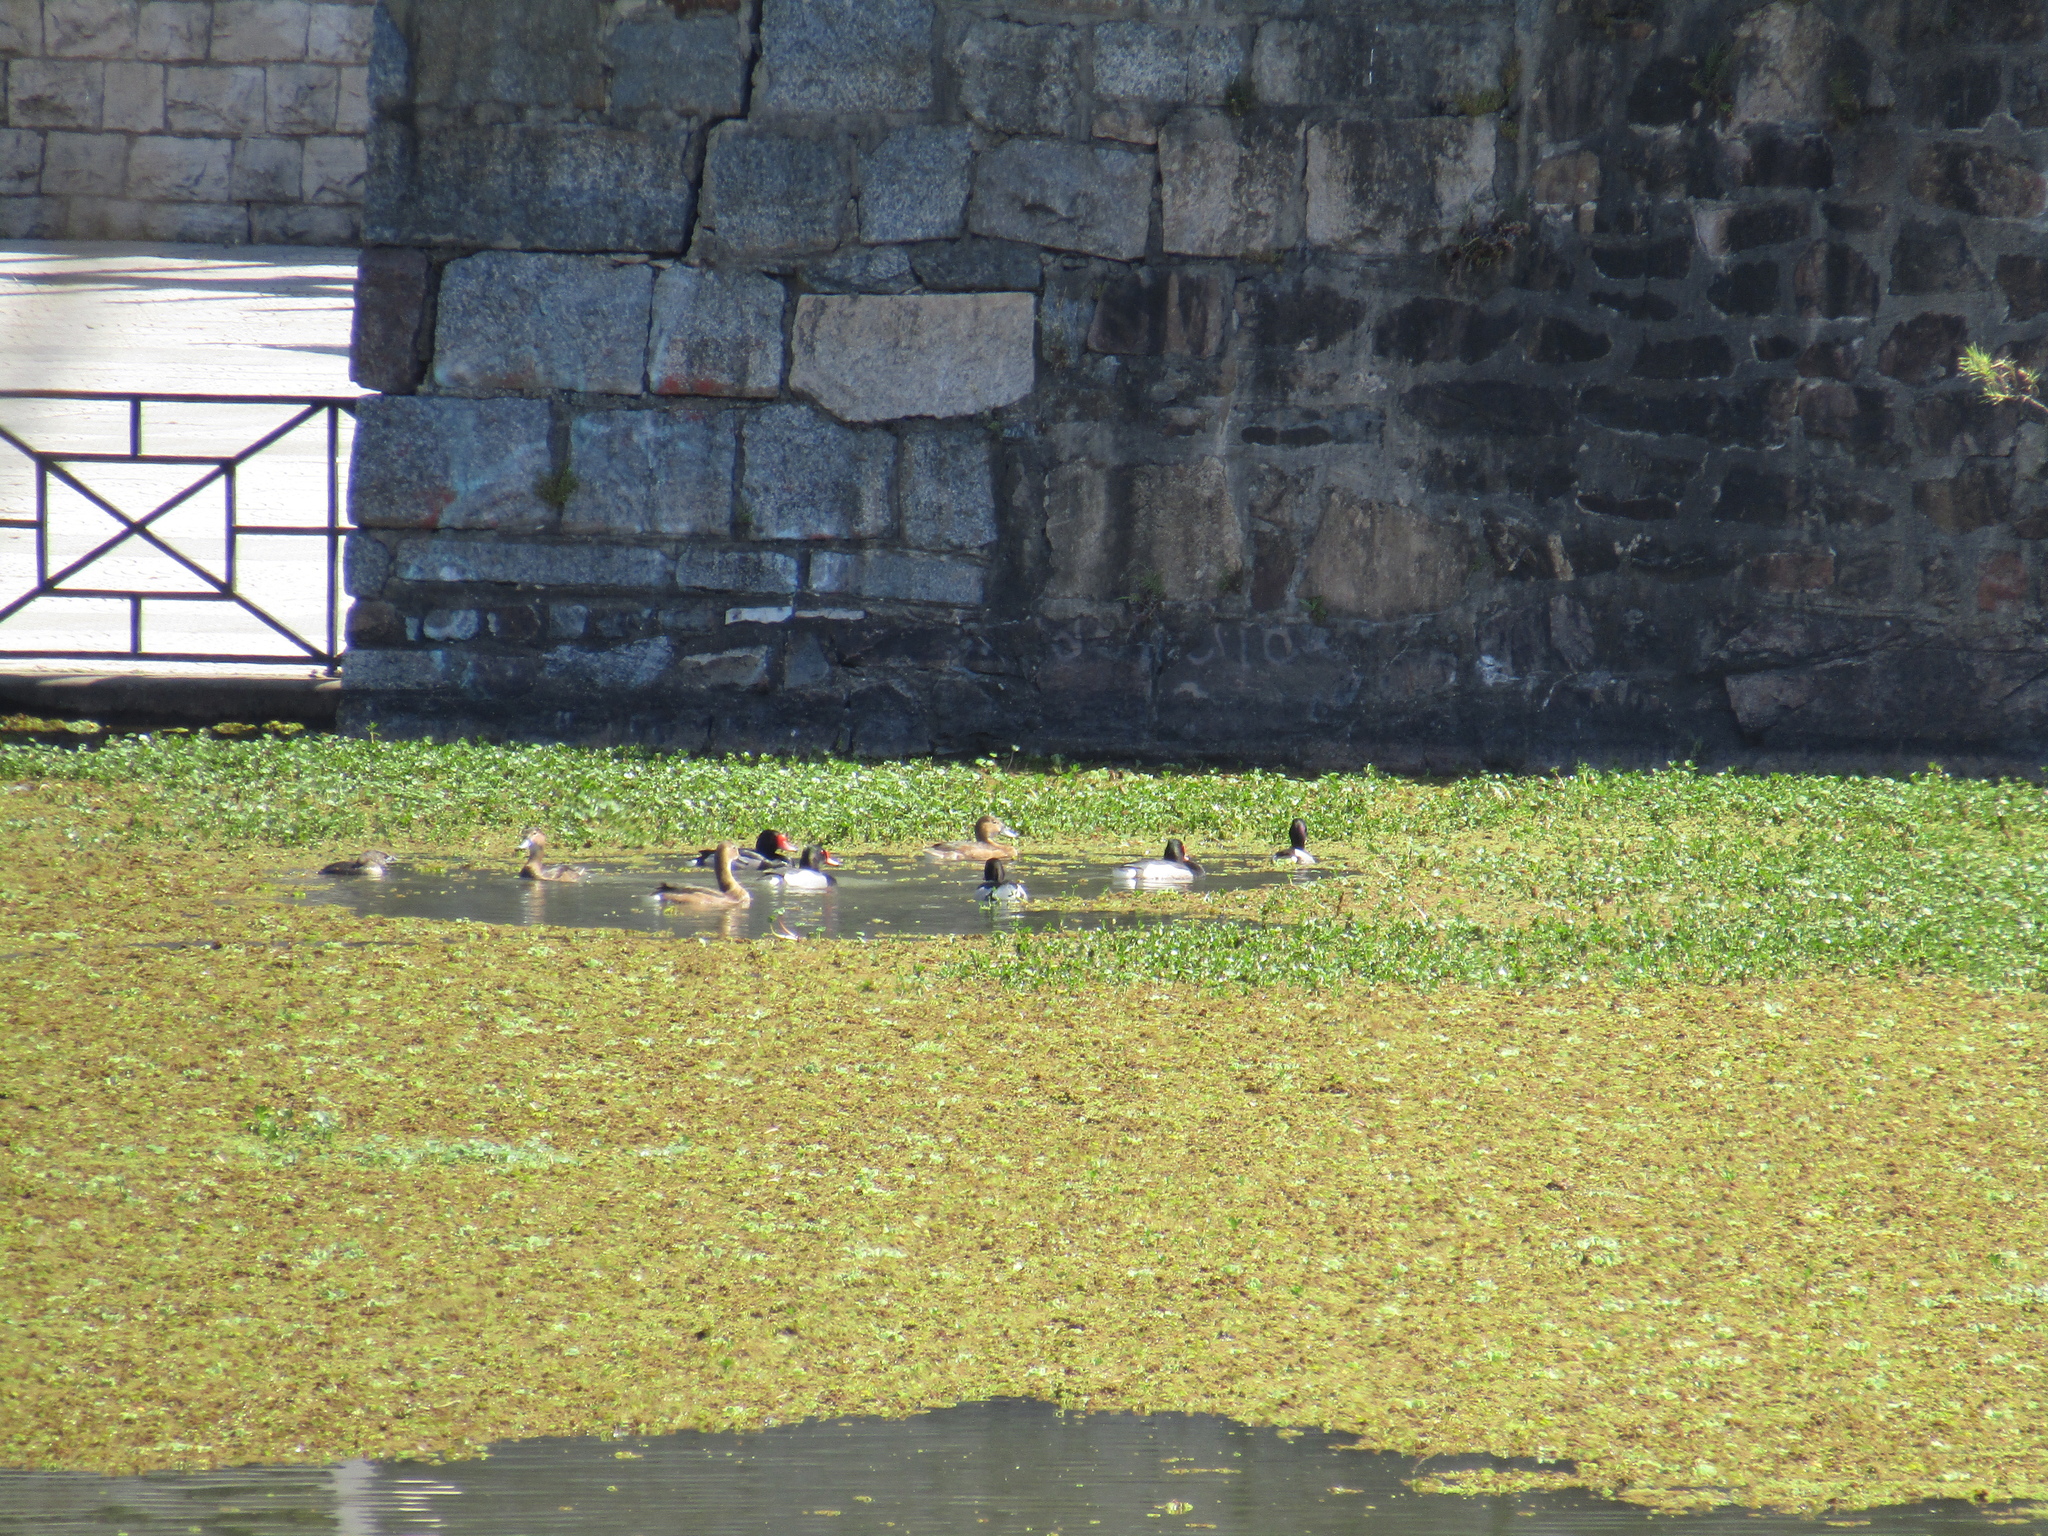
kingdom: Animalia
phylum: Chordata
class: Aves
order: Anseriformes
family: Anatidae
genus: Netta
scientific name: Netta peposaca
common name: Rosy-billed pochard
